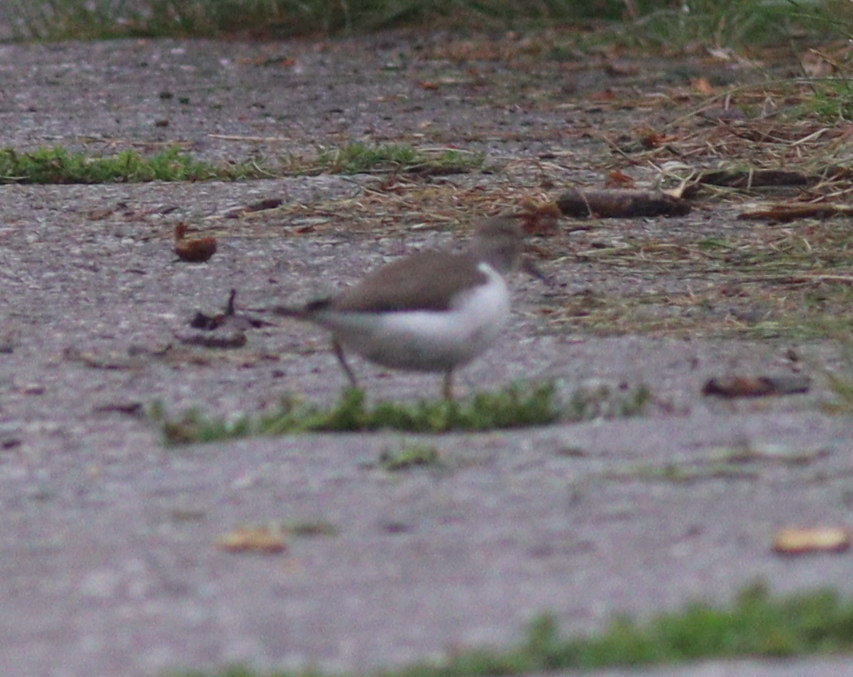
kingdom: Animalia
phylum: Chordata
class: Aves
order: Charadriiformes
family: Scolopacidae
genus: Actitis
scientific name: Actitis hypoleucos
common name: Common sandpiper
